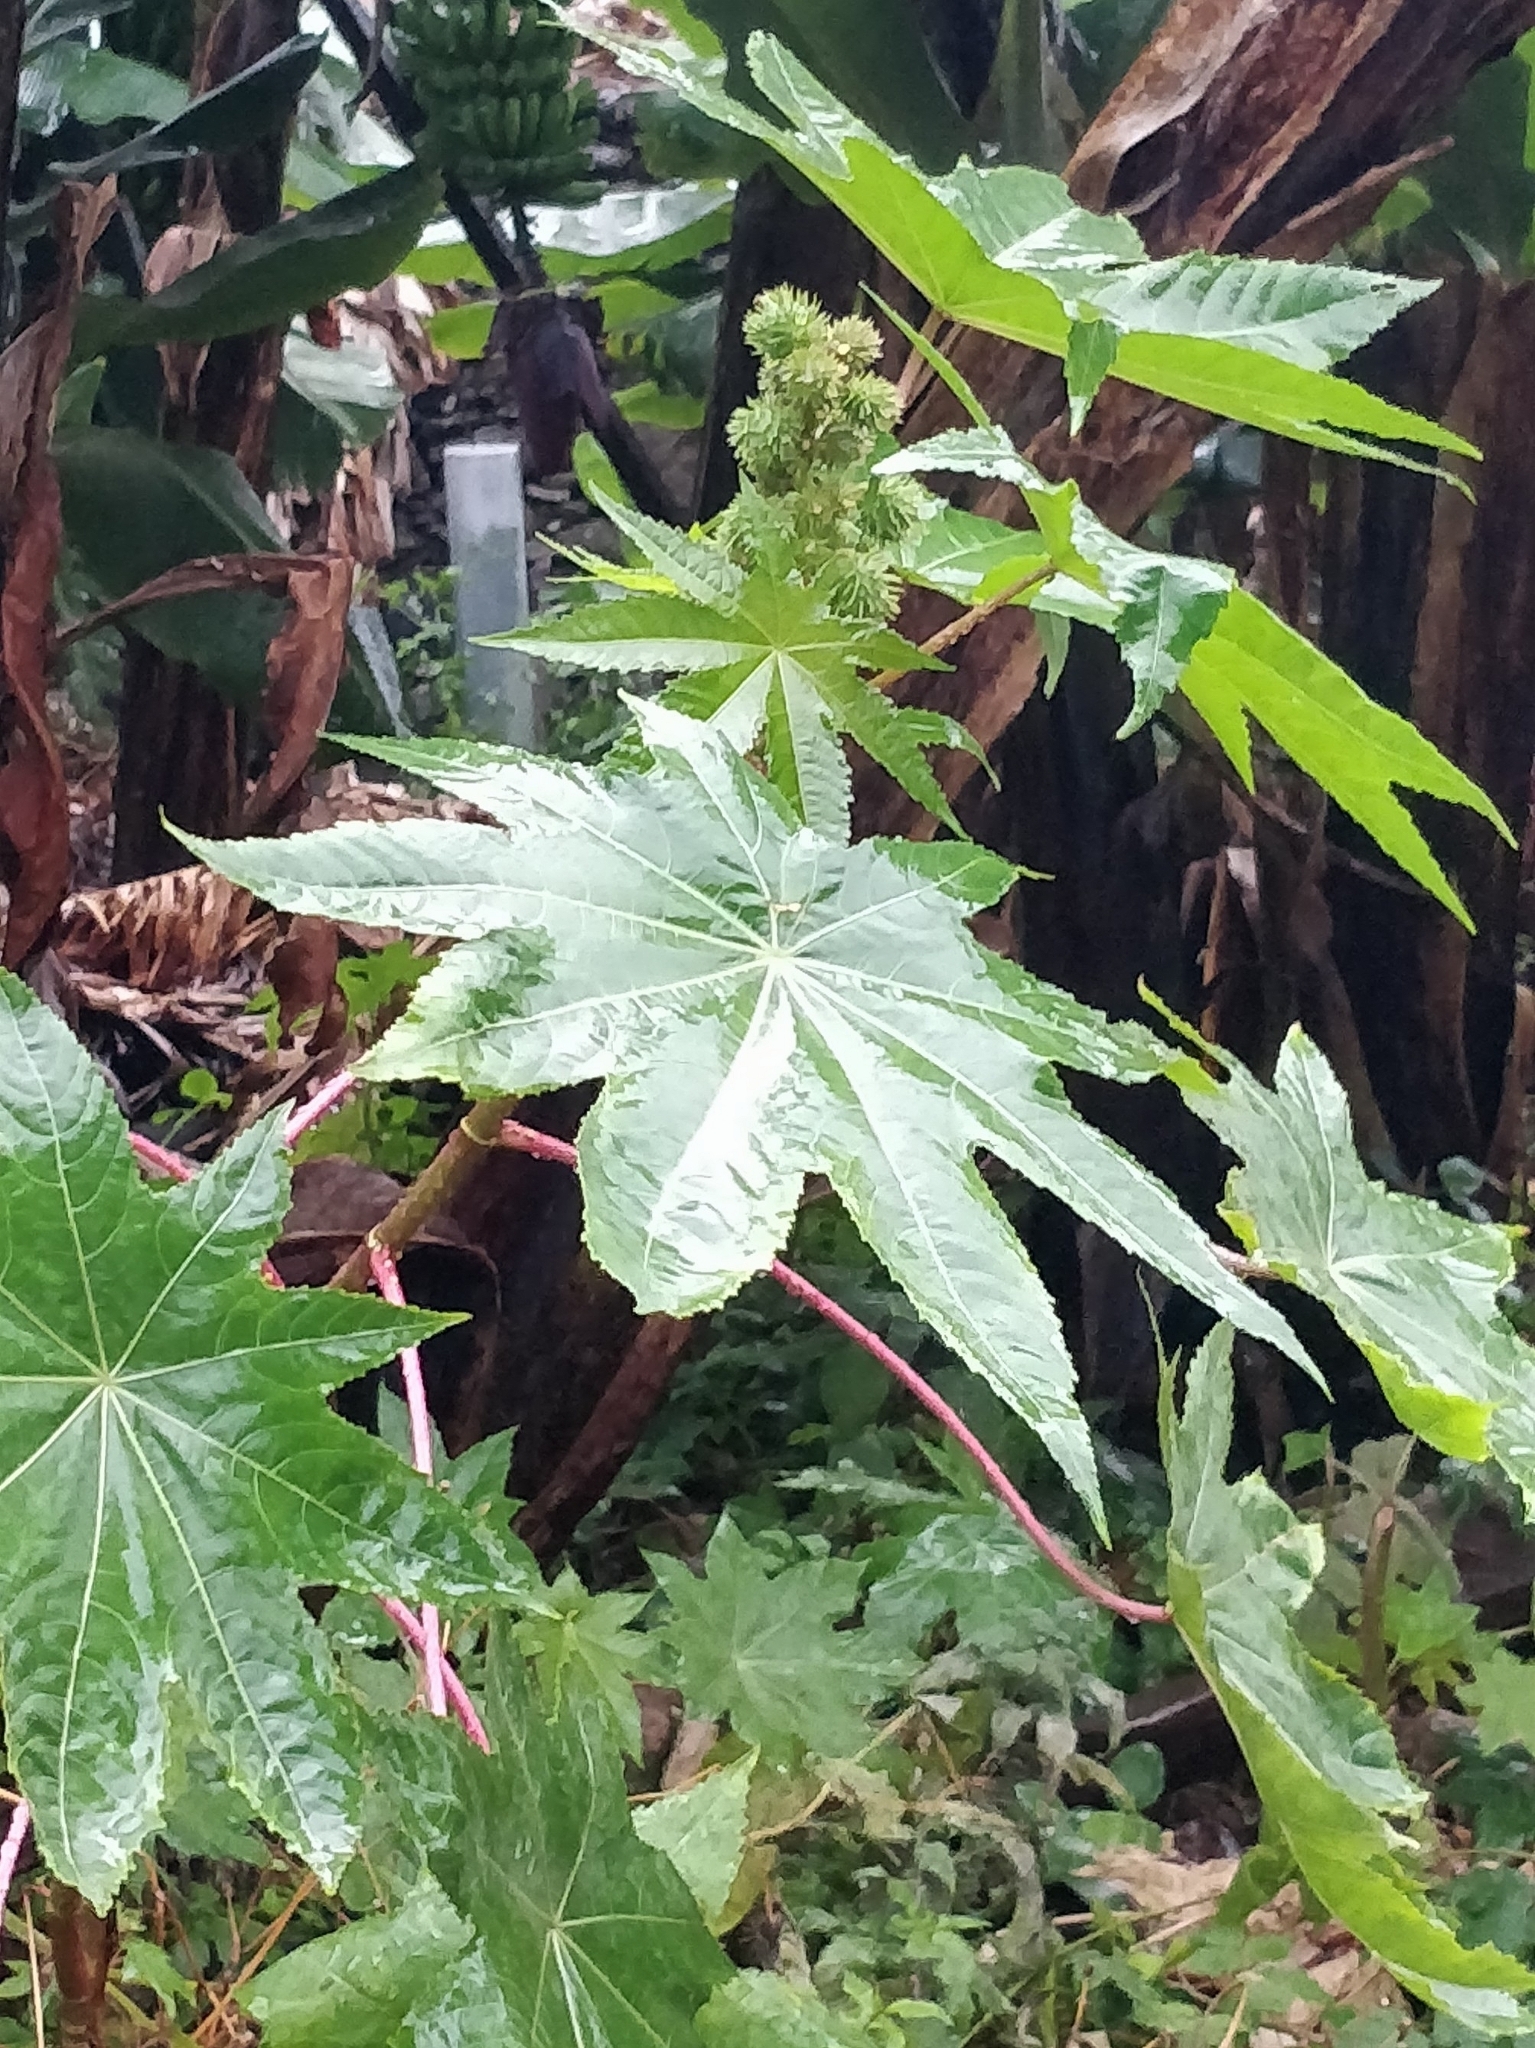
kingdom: Plantae
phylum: Tracheophyta
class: Magnoliopsida
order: Malpighiales
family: Euphorbiaceae
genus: Ricinus
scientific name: Ricinus communis
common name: Castor-oil-plant
